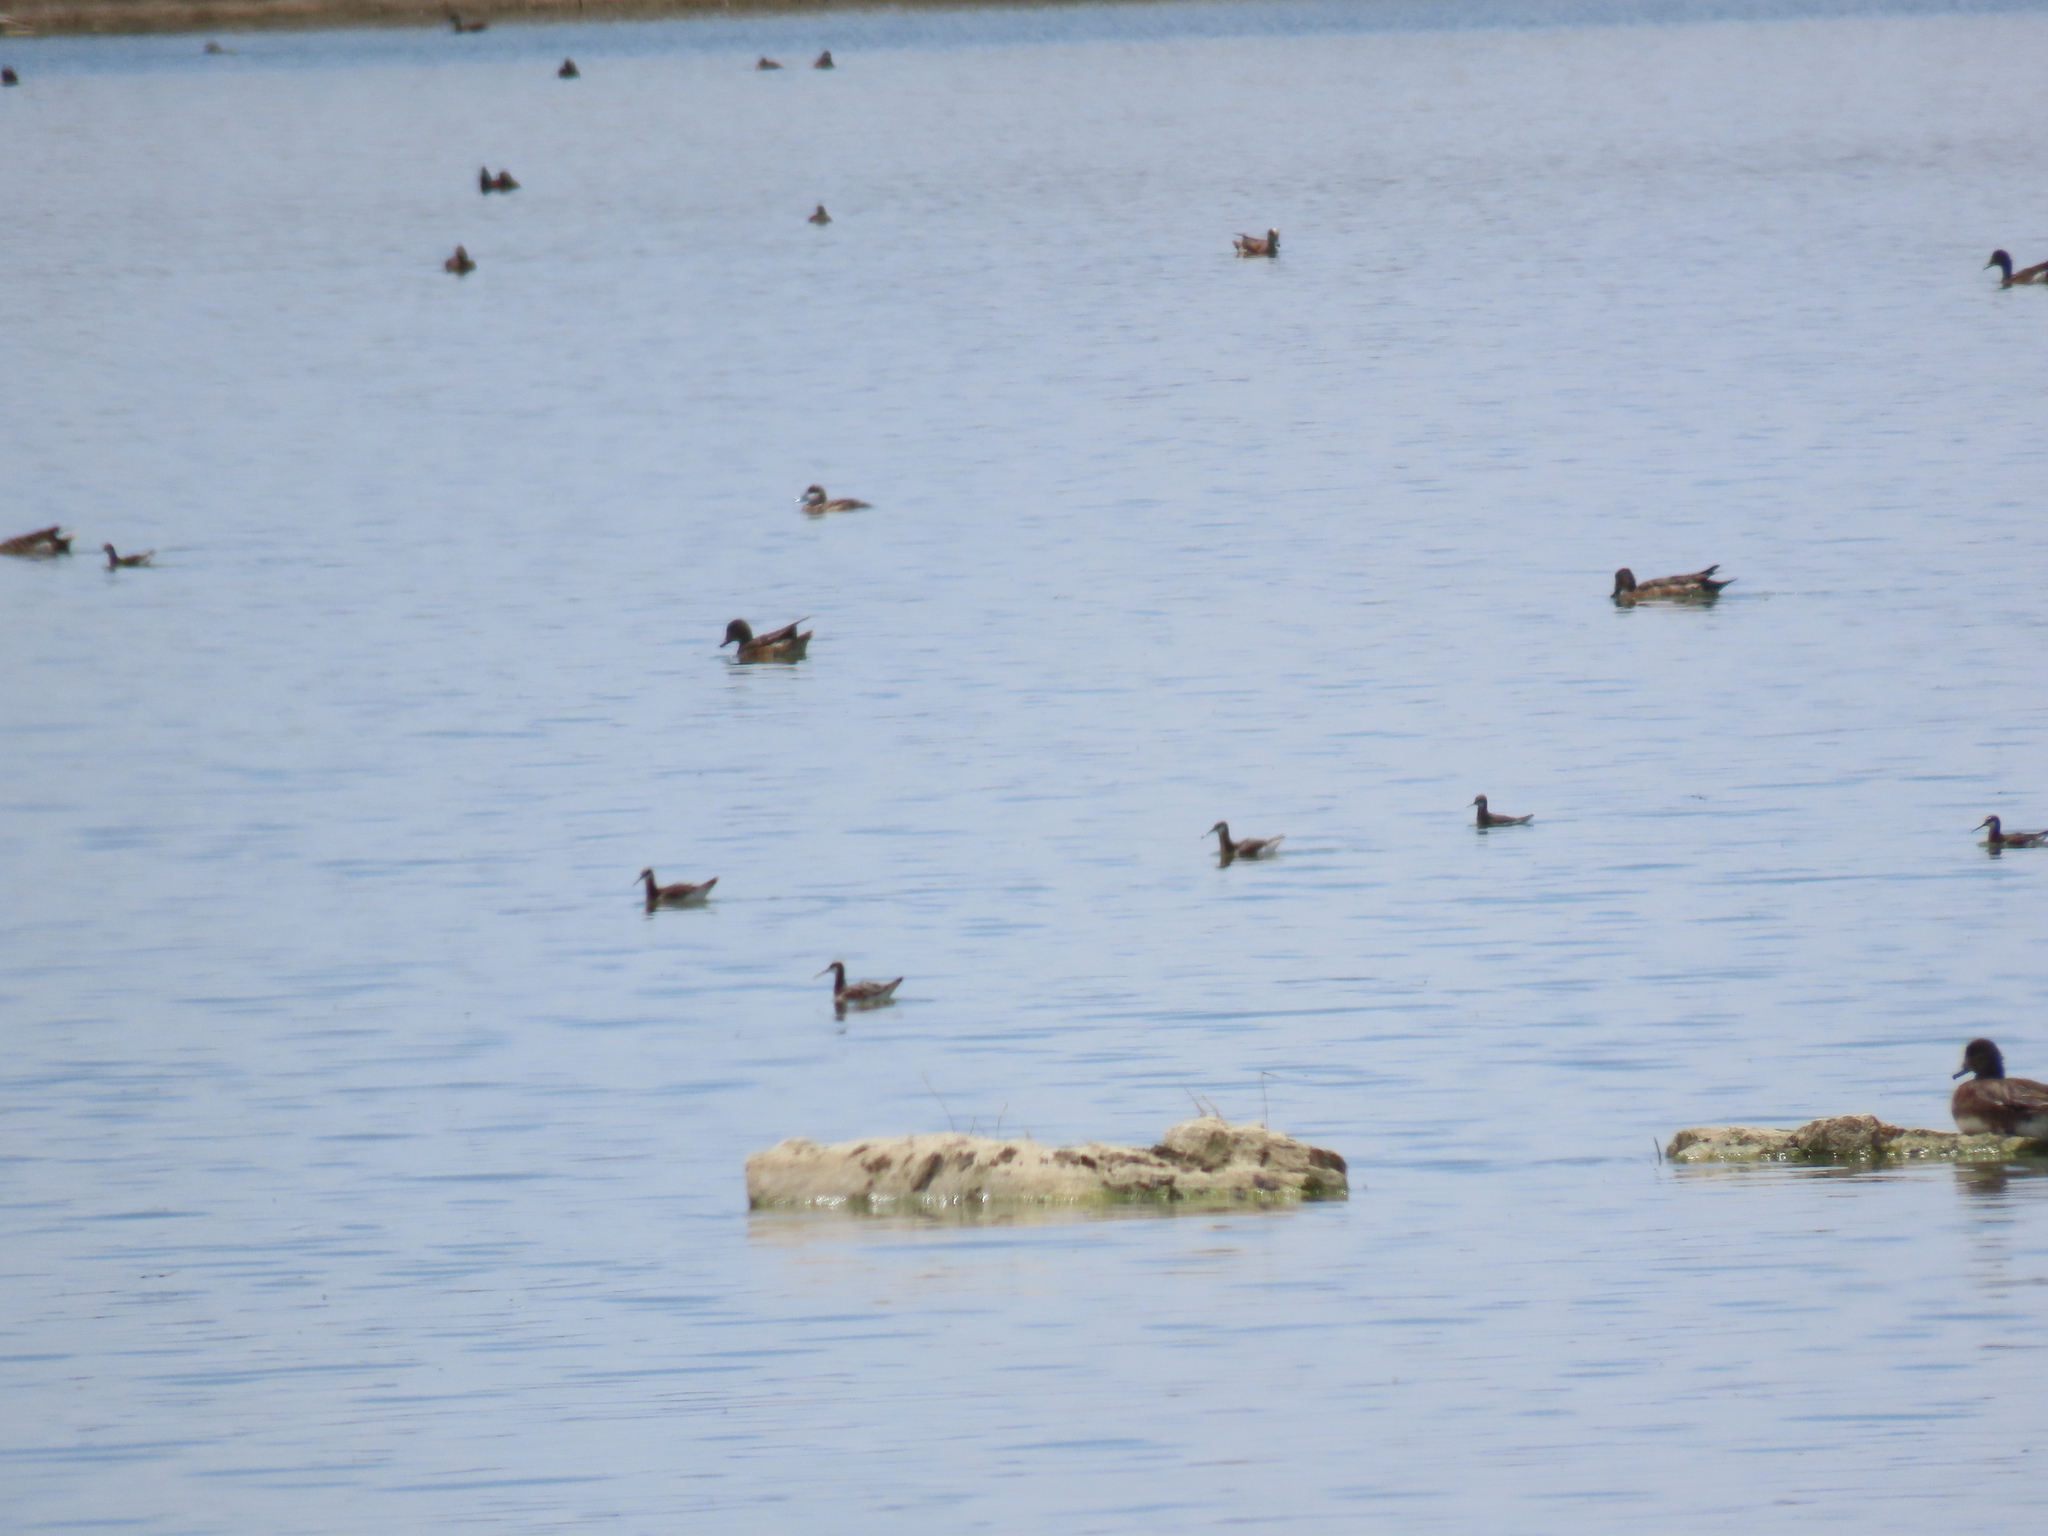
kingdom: Animalia
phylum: Chordata
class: Aves
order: Charadriiformes
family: Scolopacidae
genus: Phalaropus
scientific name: Phalaropus lobatus
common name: Red-necked phalarope
